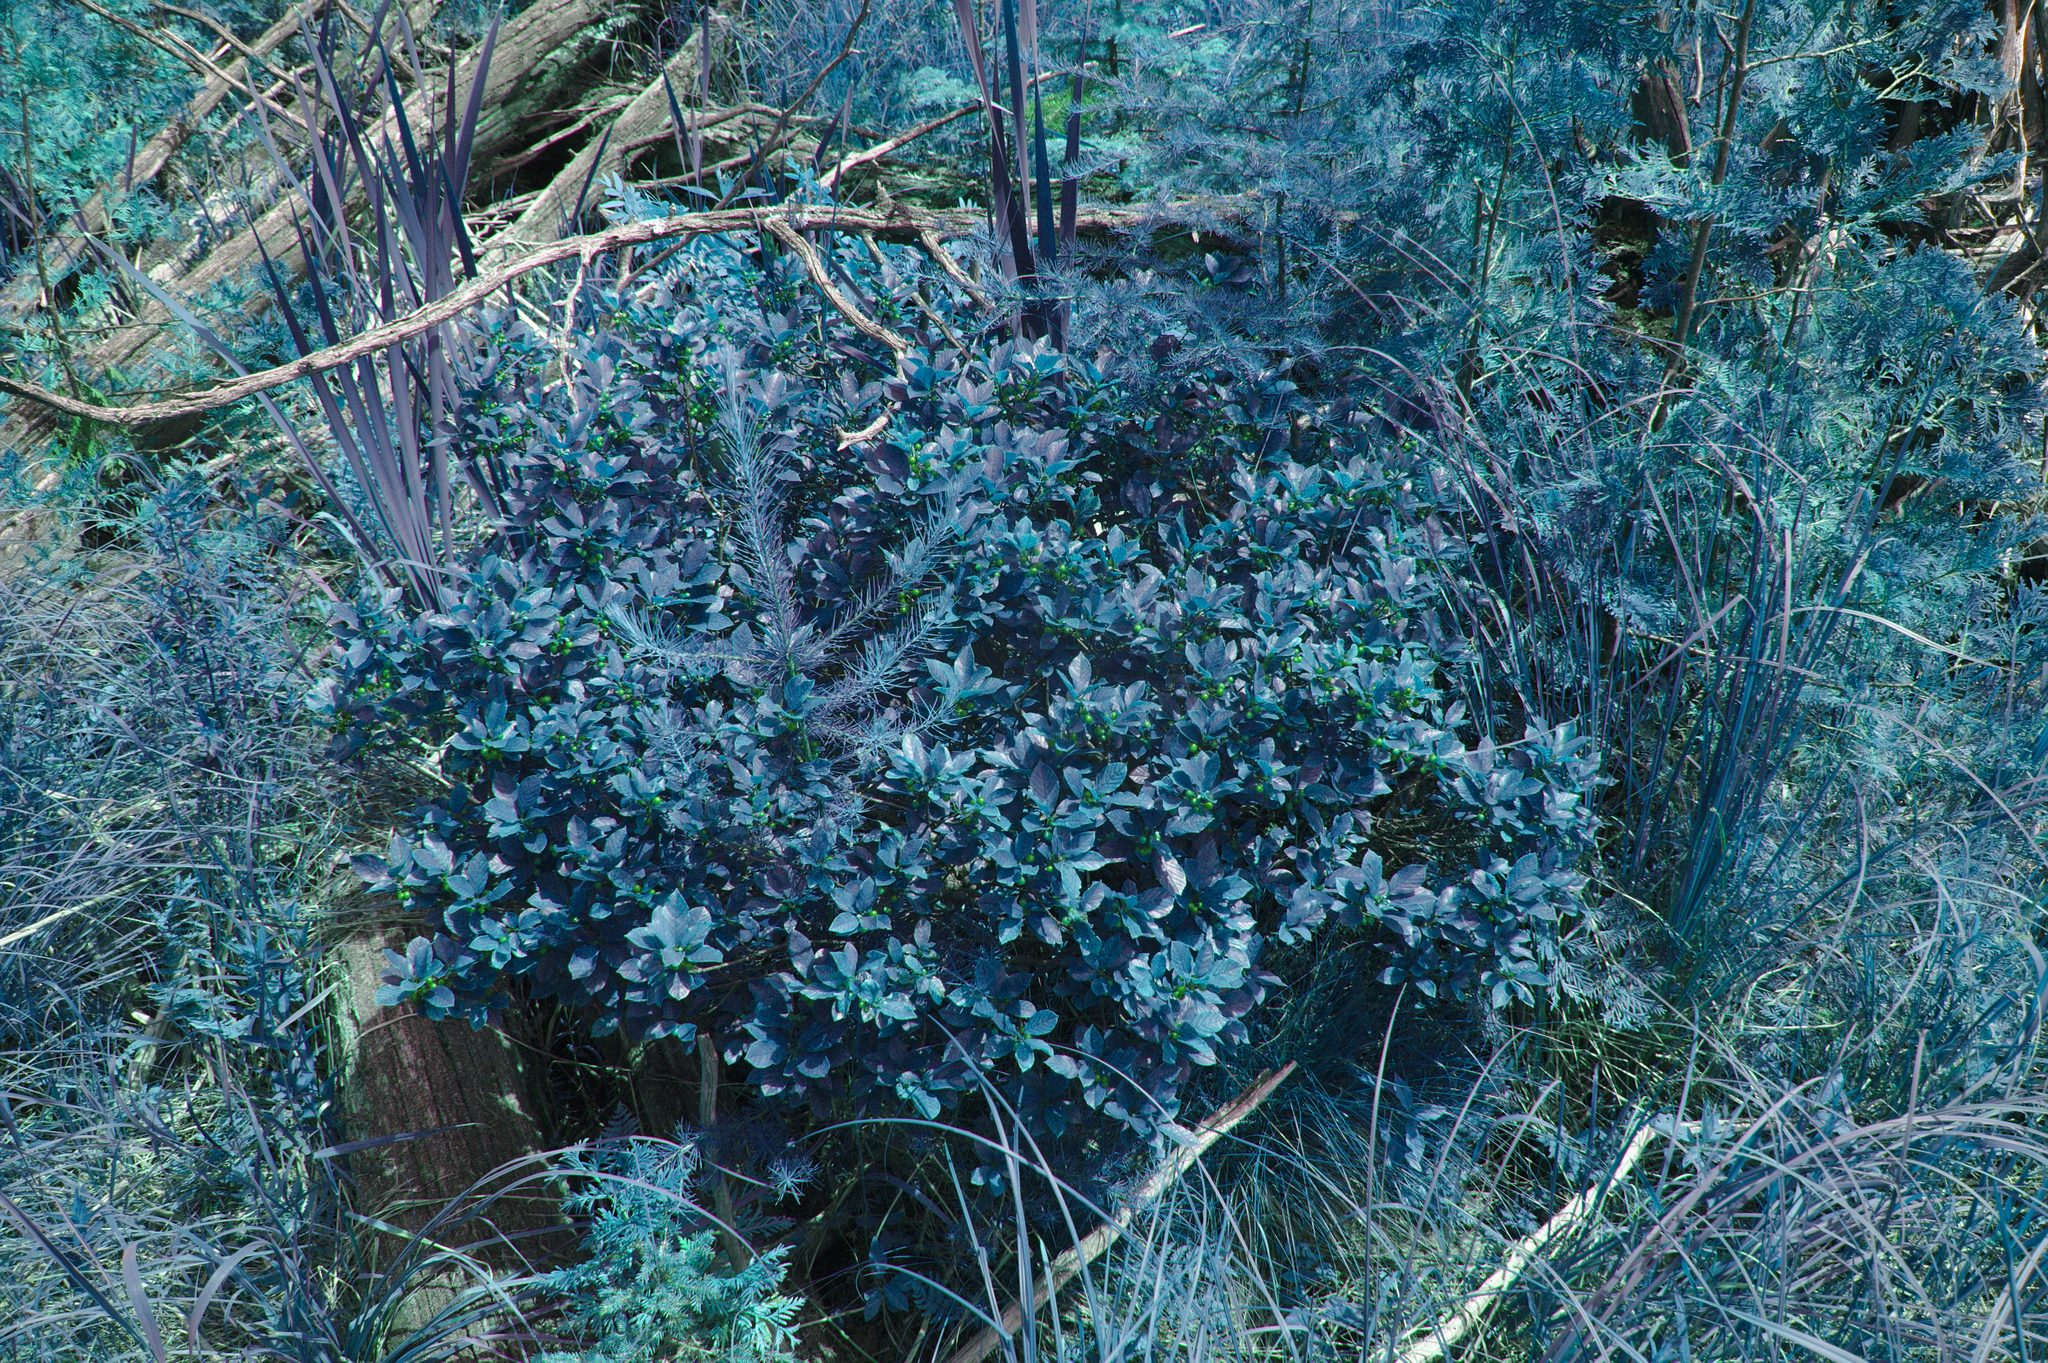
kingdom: Plantae
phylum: Tracheophyta
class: Magnoliopsida
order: Rosales
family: Rhamnaceae
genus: Frangula
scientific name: Frangula alnus
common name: Alder buckthorn
